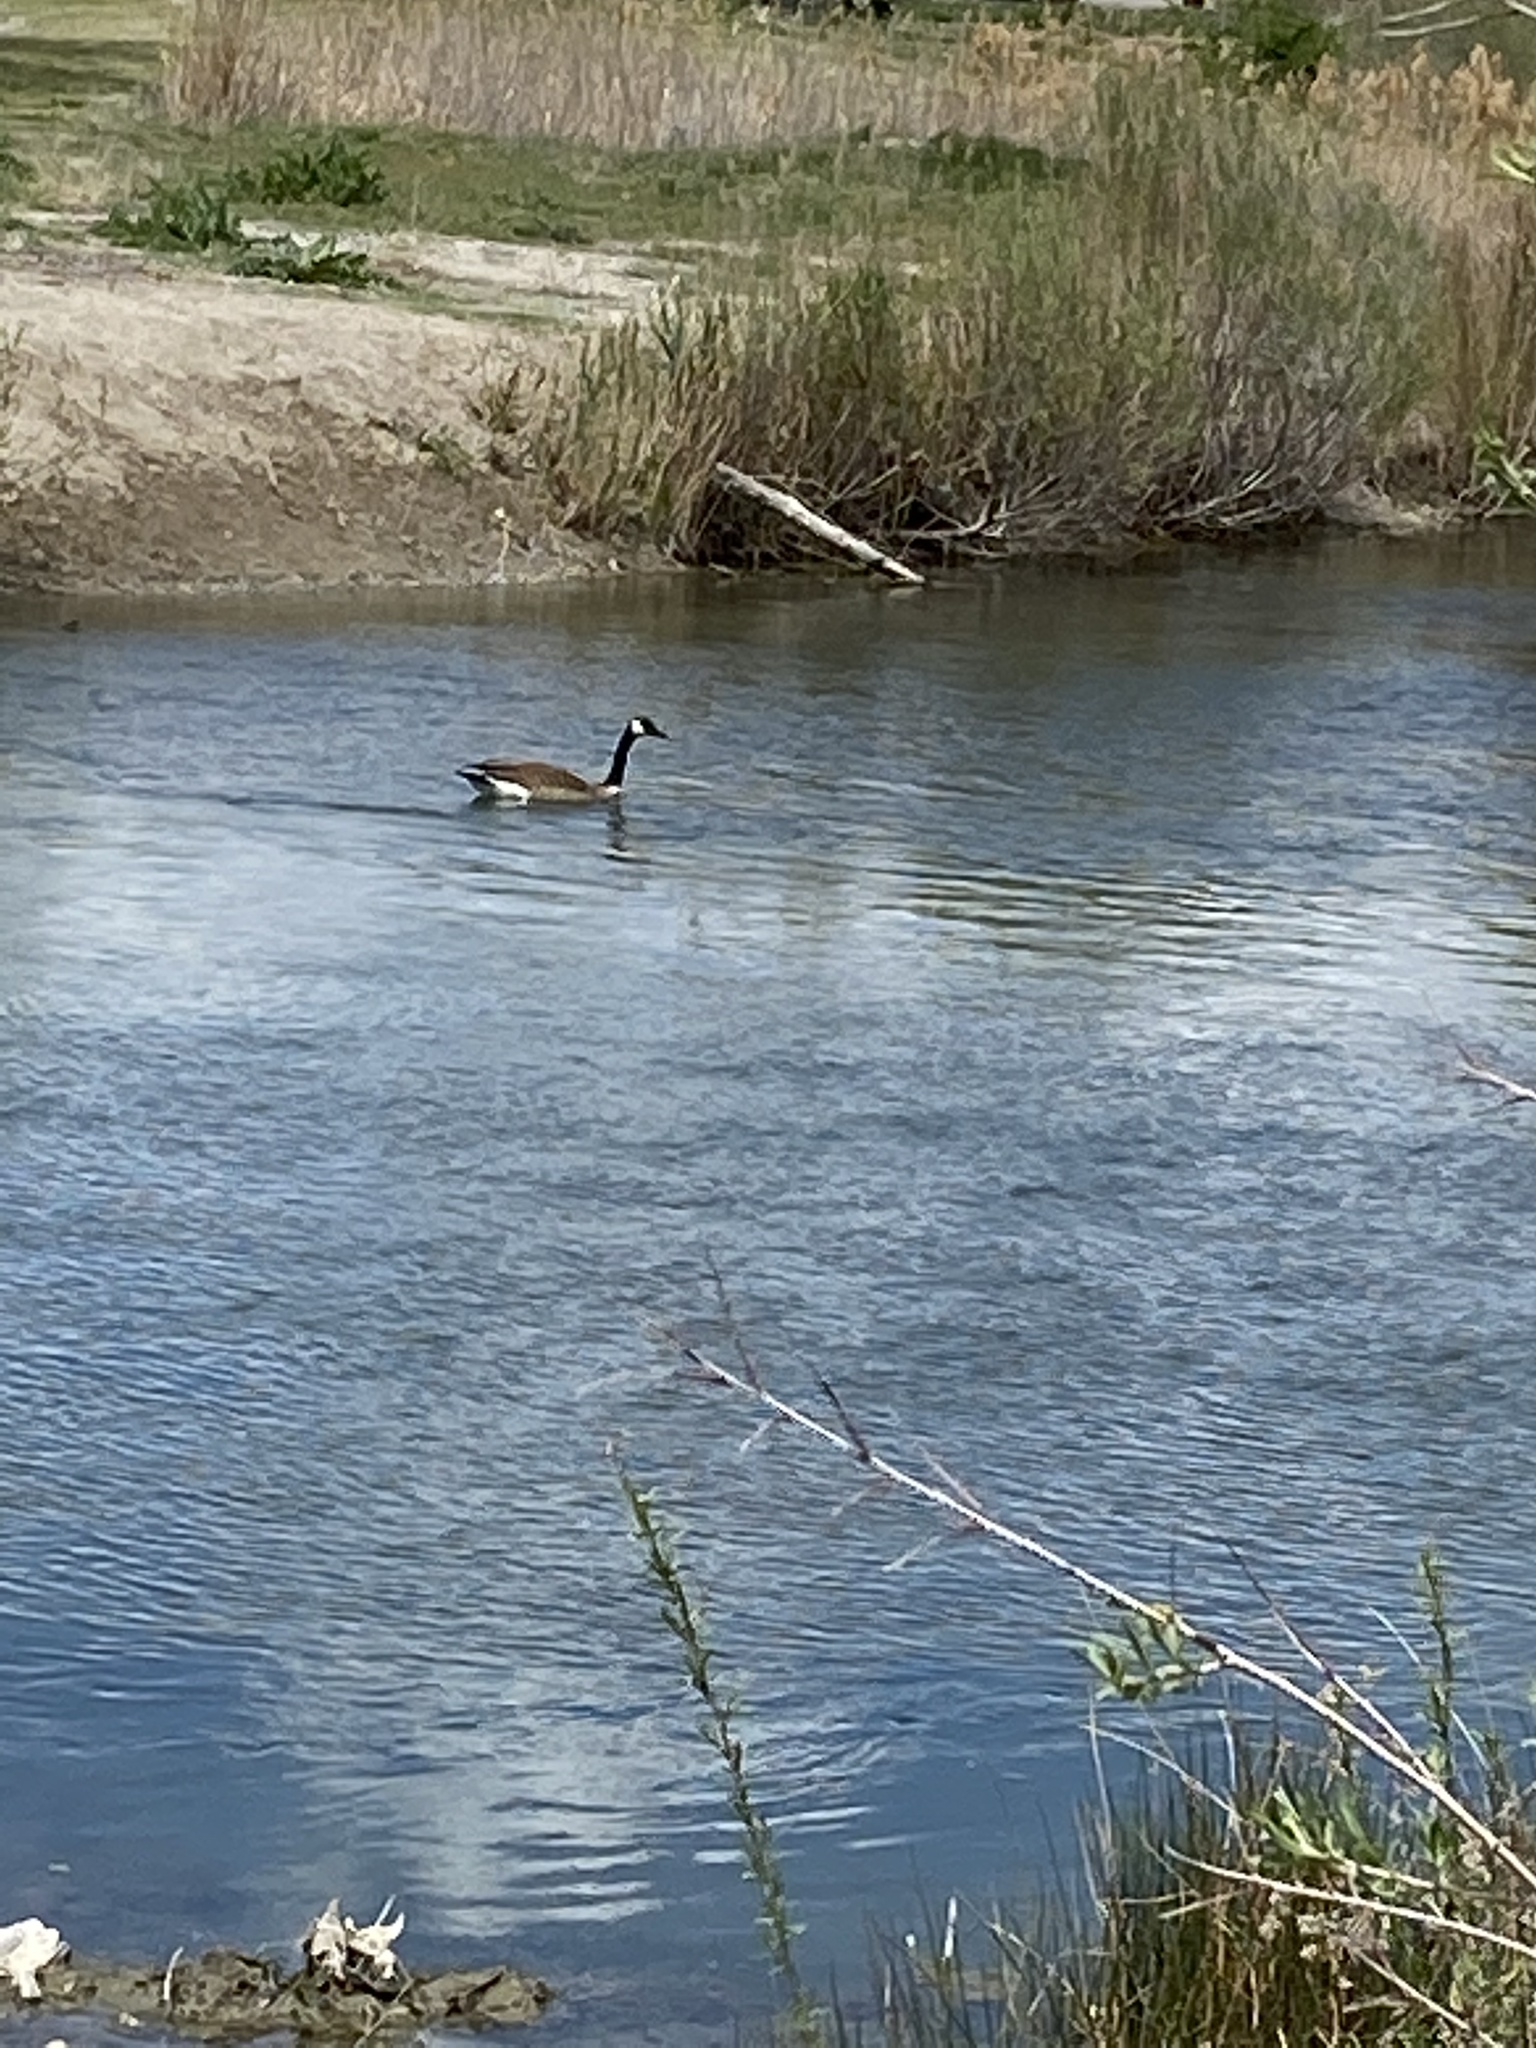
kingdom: Animalia
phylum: Chordata
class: Aves
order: Anseriformes
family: Anatidae
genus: Branta
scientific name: Branta canadensis
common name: Canada goose
